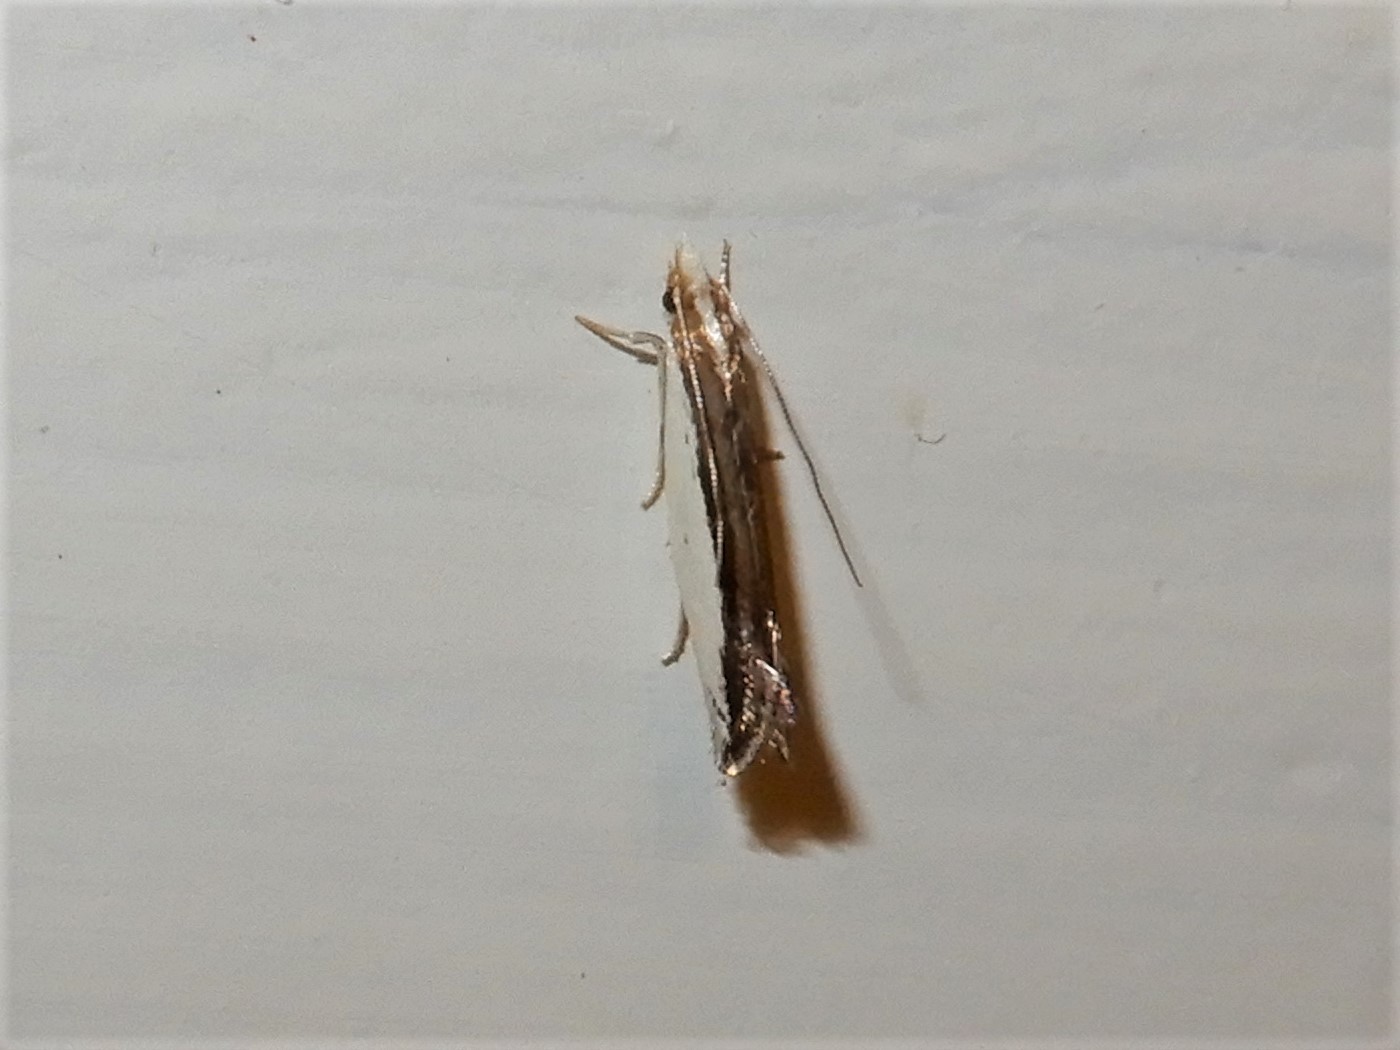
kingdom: Animalia
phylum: Arthropoda
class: Insecta
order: Lepidoptera
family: Tineidae
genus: Erechthias
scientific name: Erechthias chionodira
